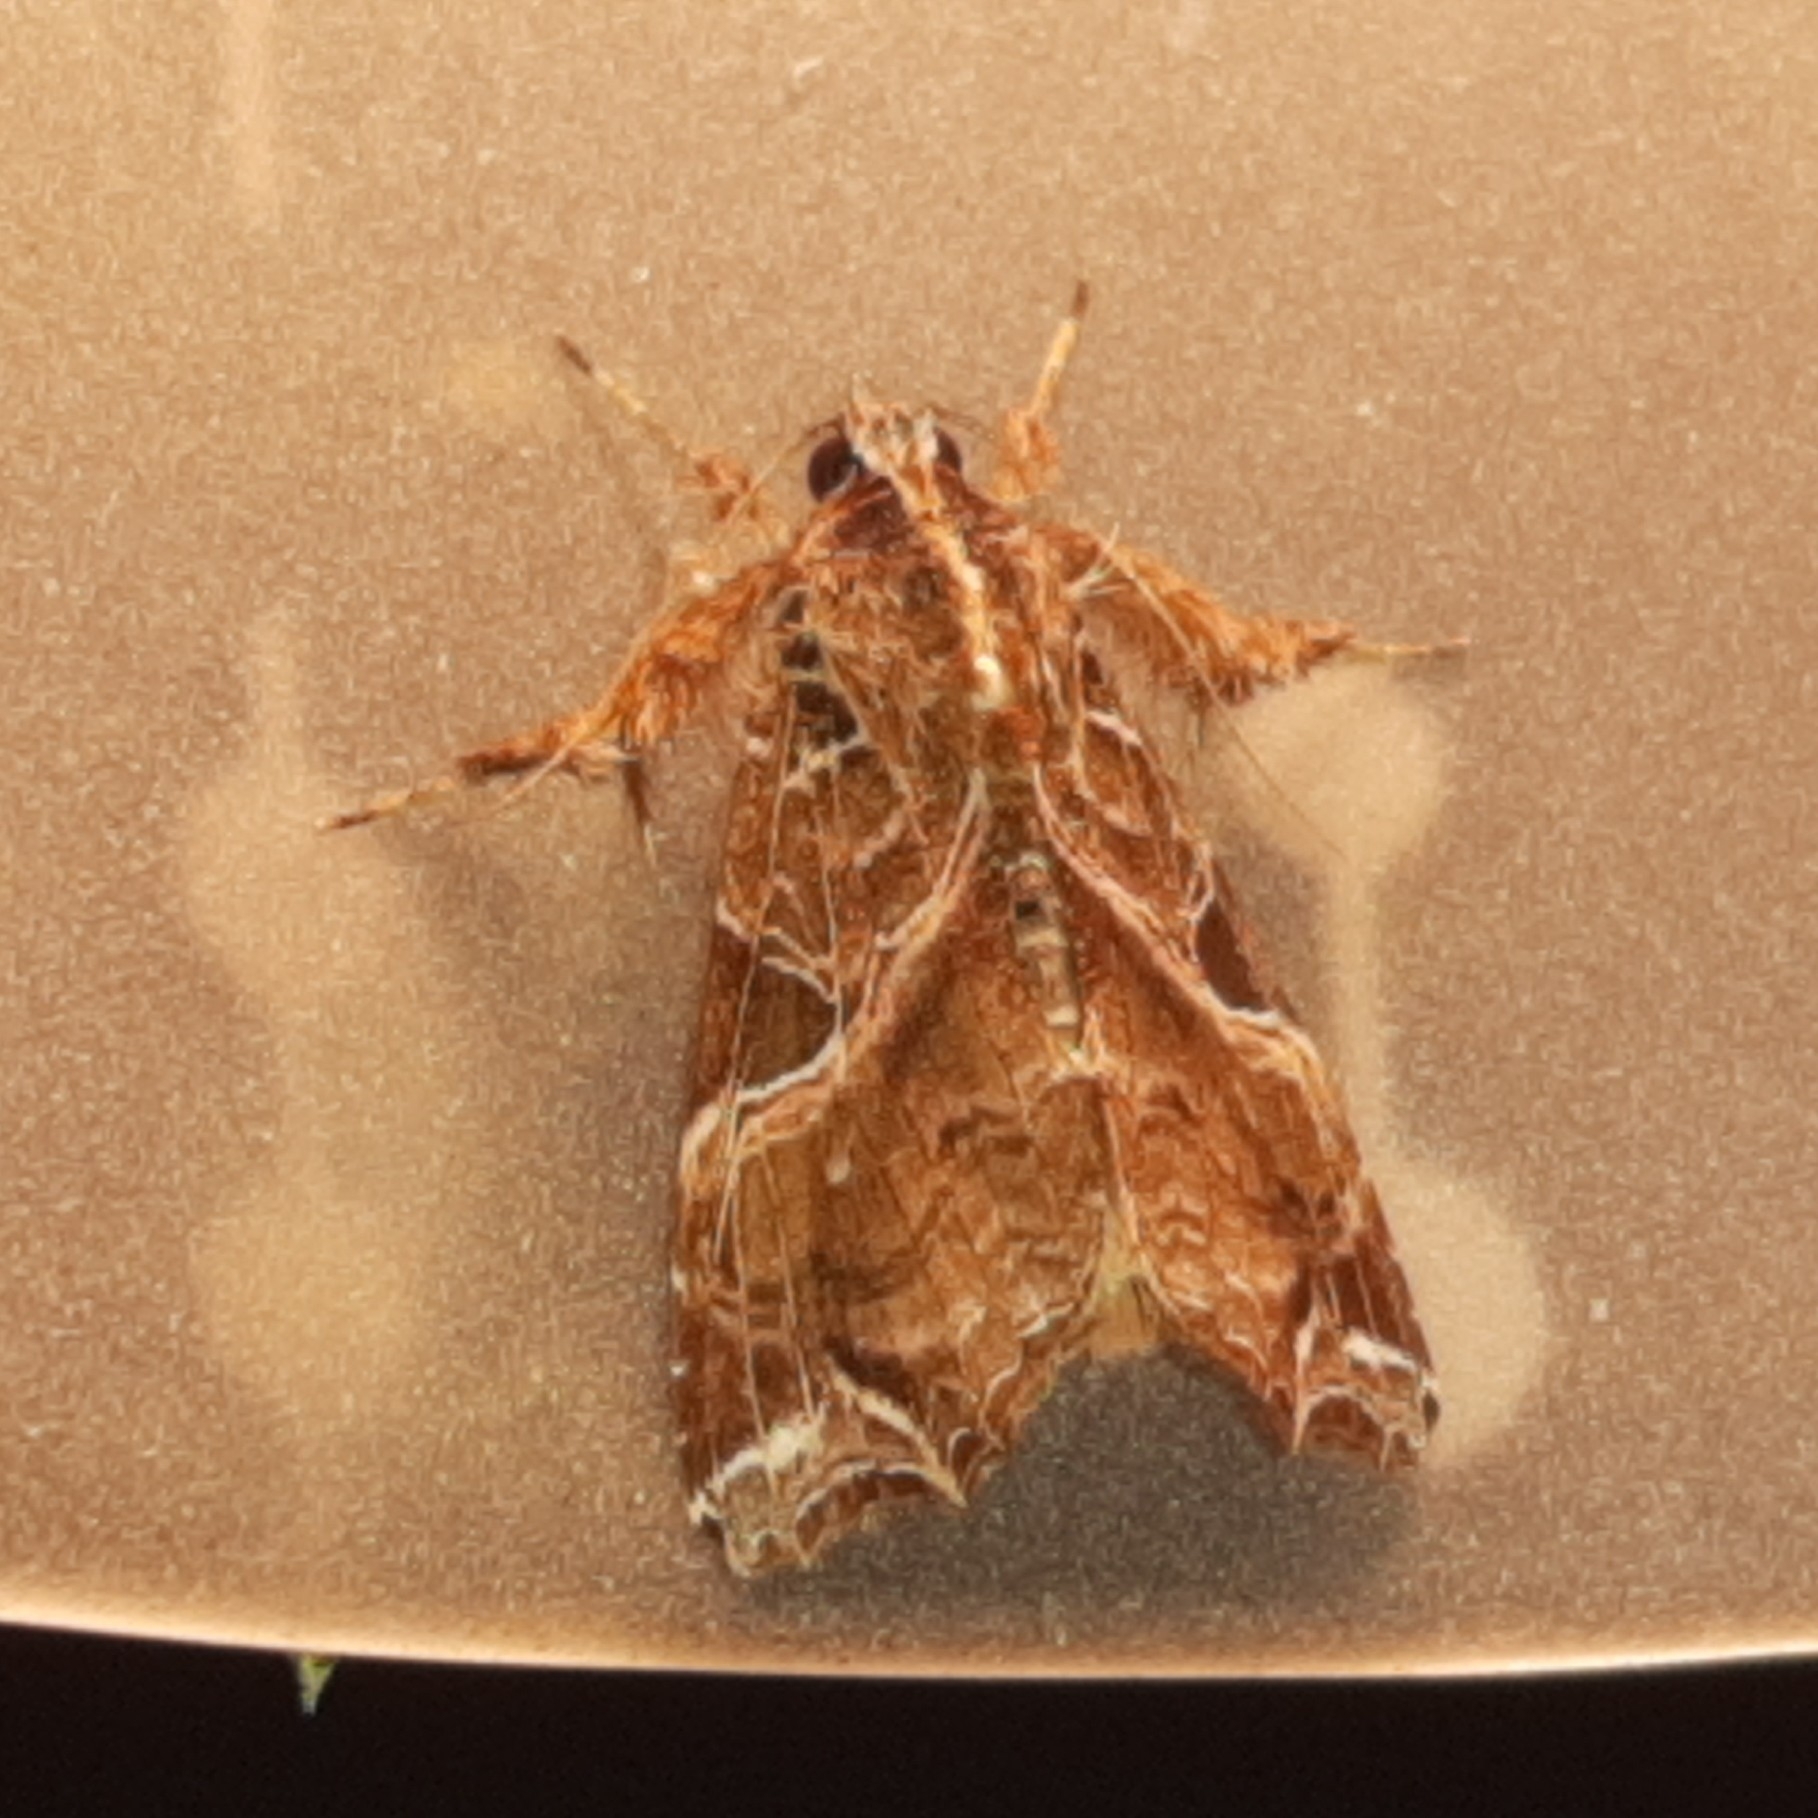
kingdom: Animalia
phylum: Arthropoda
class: Insecta
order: Lepidoptera
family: Noctuidae
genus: Callopistria
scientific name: Callopistria floridensis
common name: Florida fern moth
